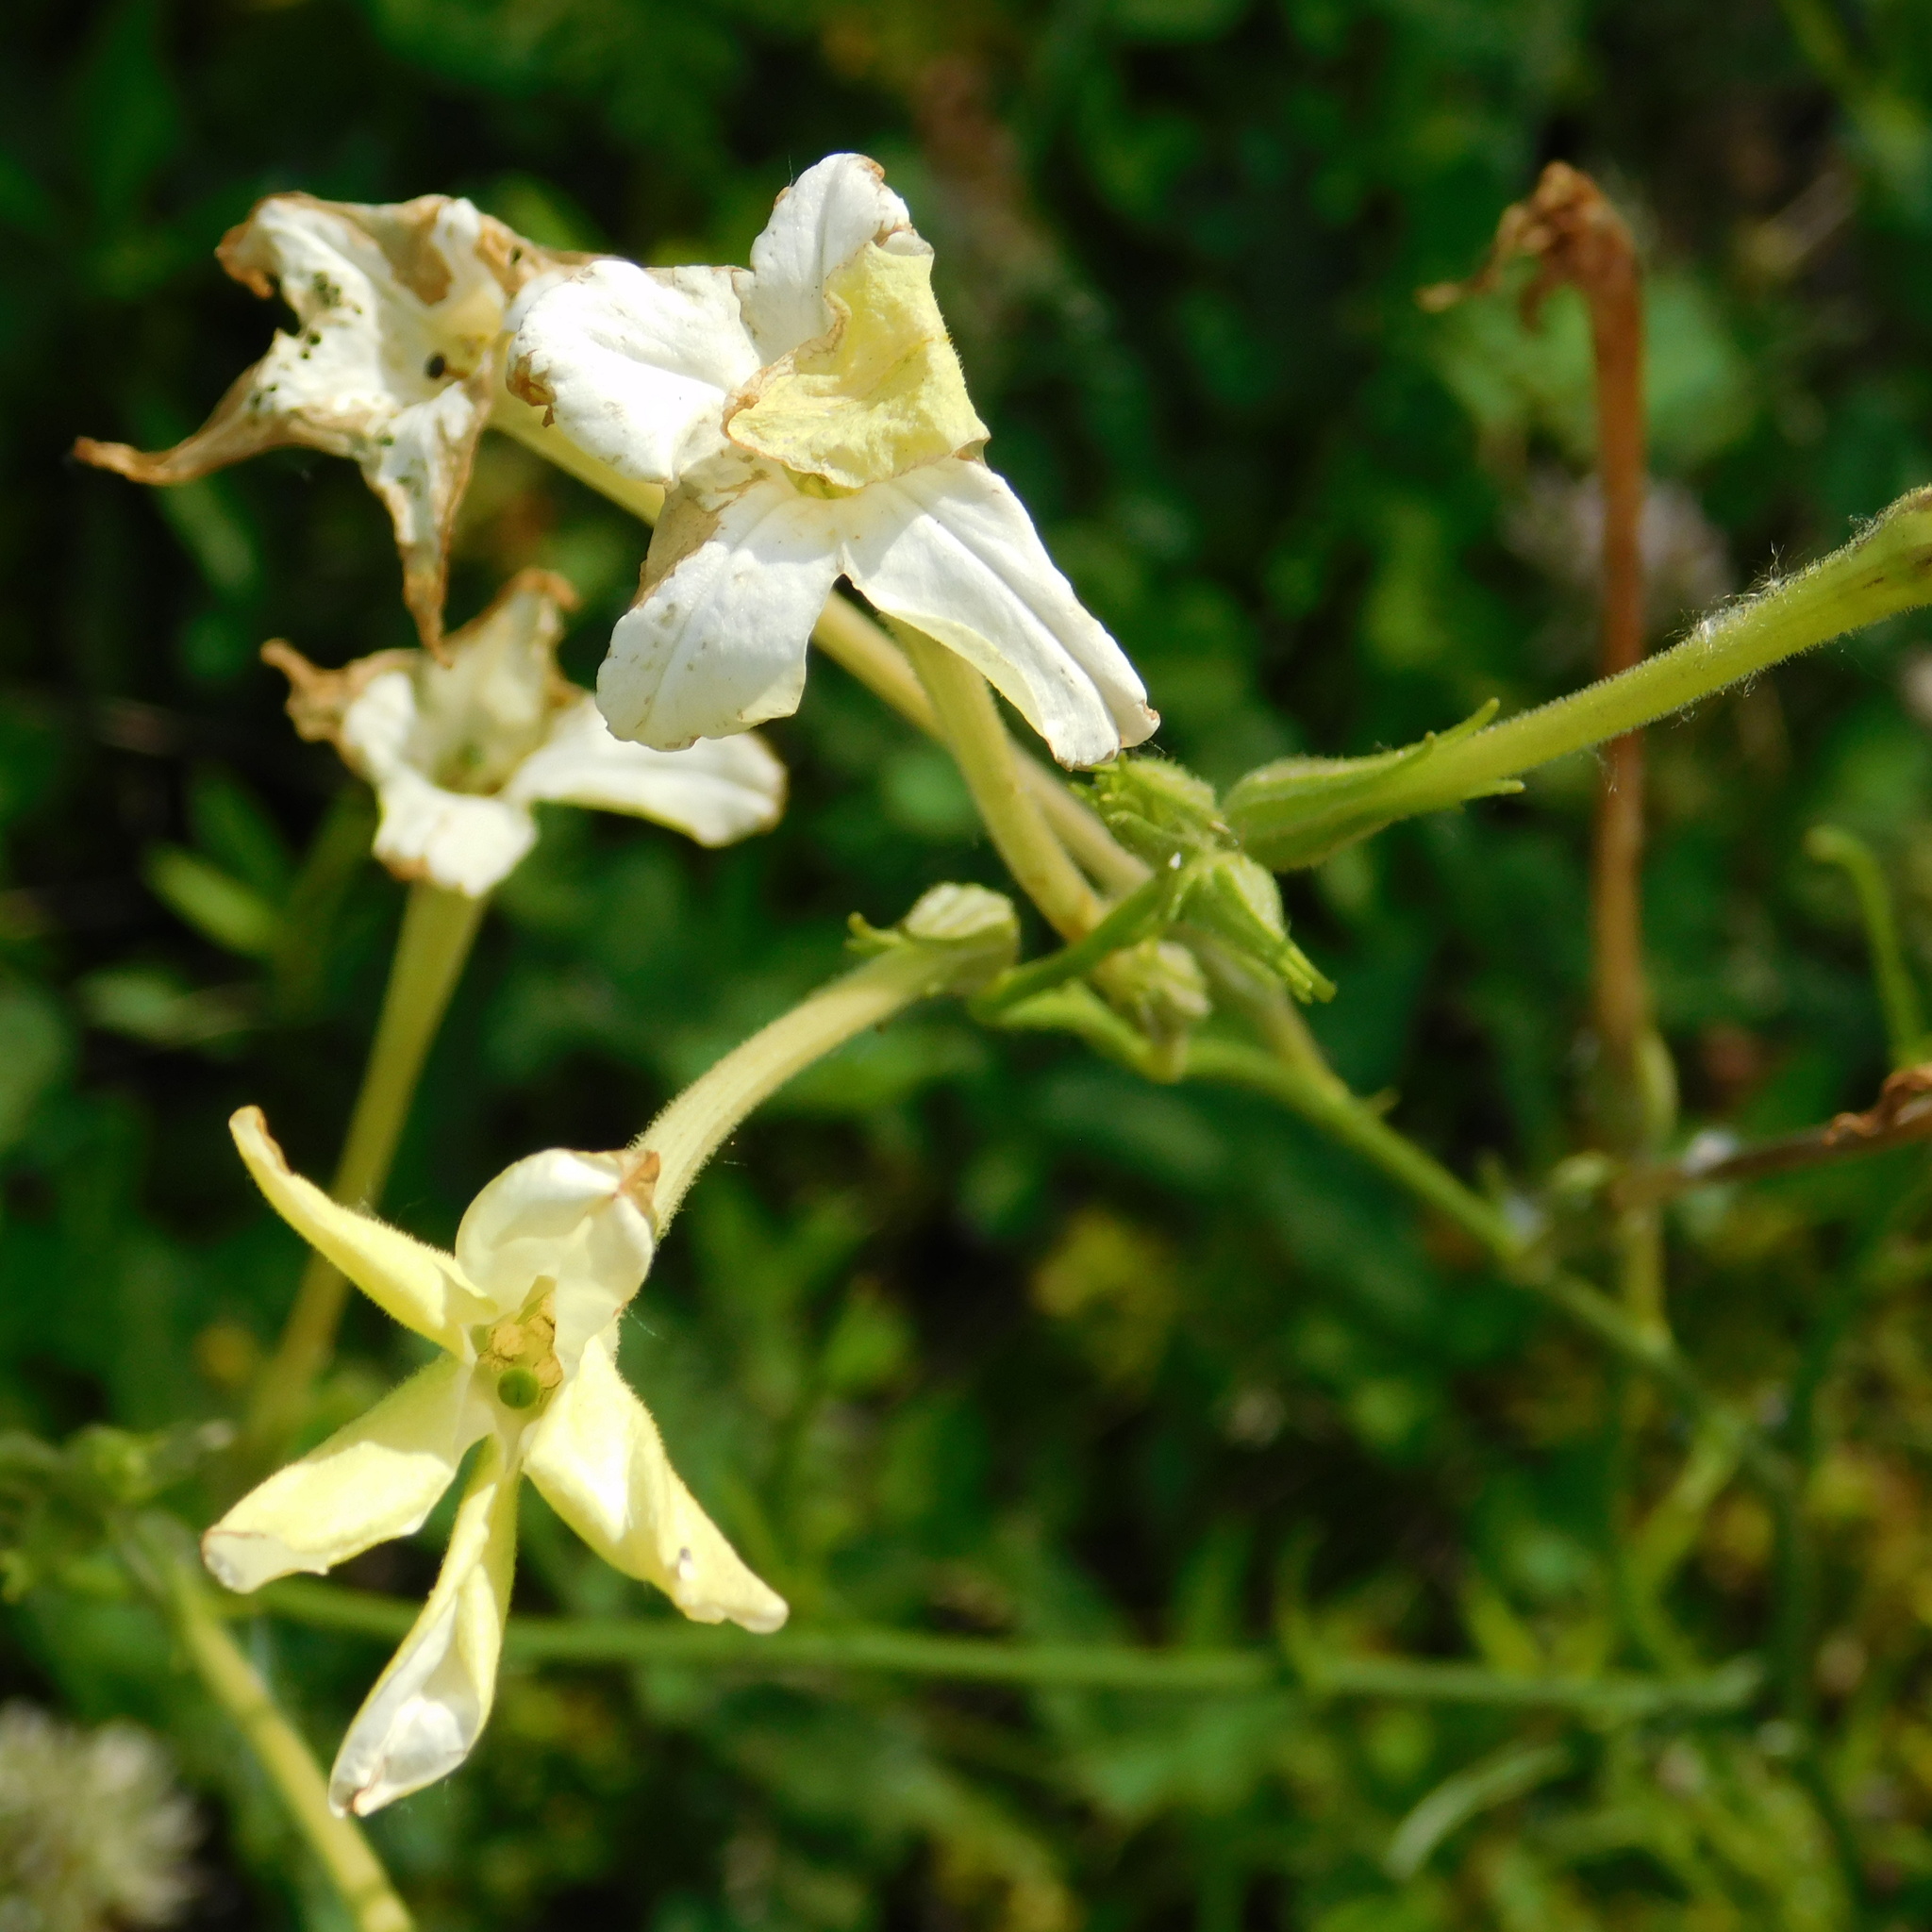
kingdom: Plantae
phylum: Tracheophyta
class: Magnoliopsida
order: Solanales
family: Solanaceae
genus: Nicotiana
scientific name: Nicotiana longiflora
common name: Long-flowered tobacco
